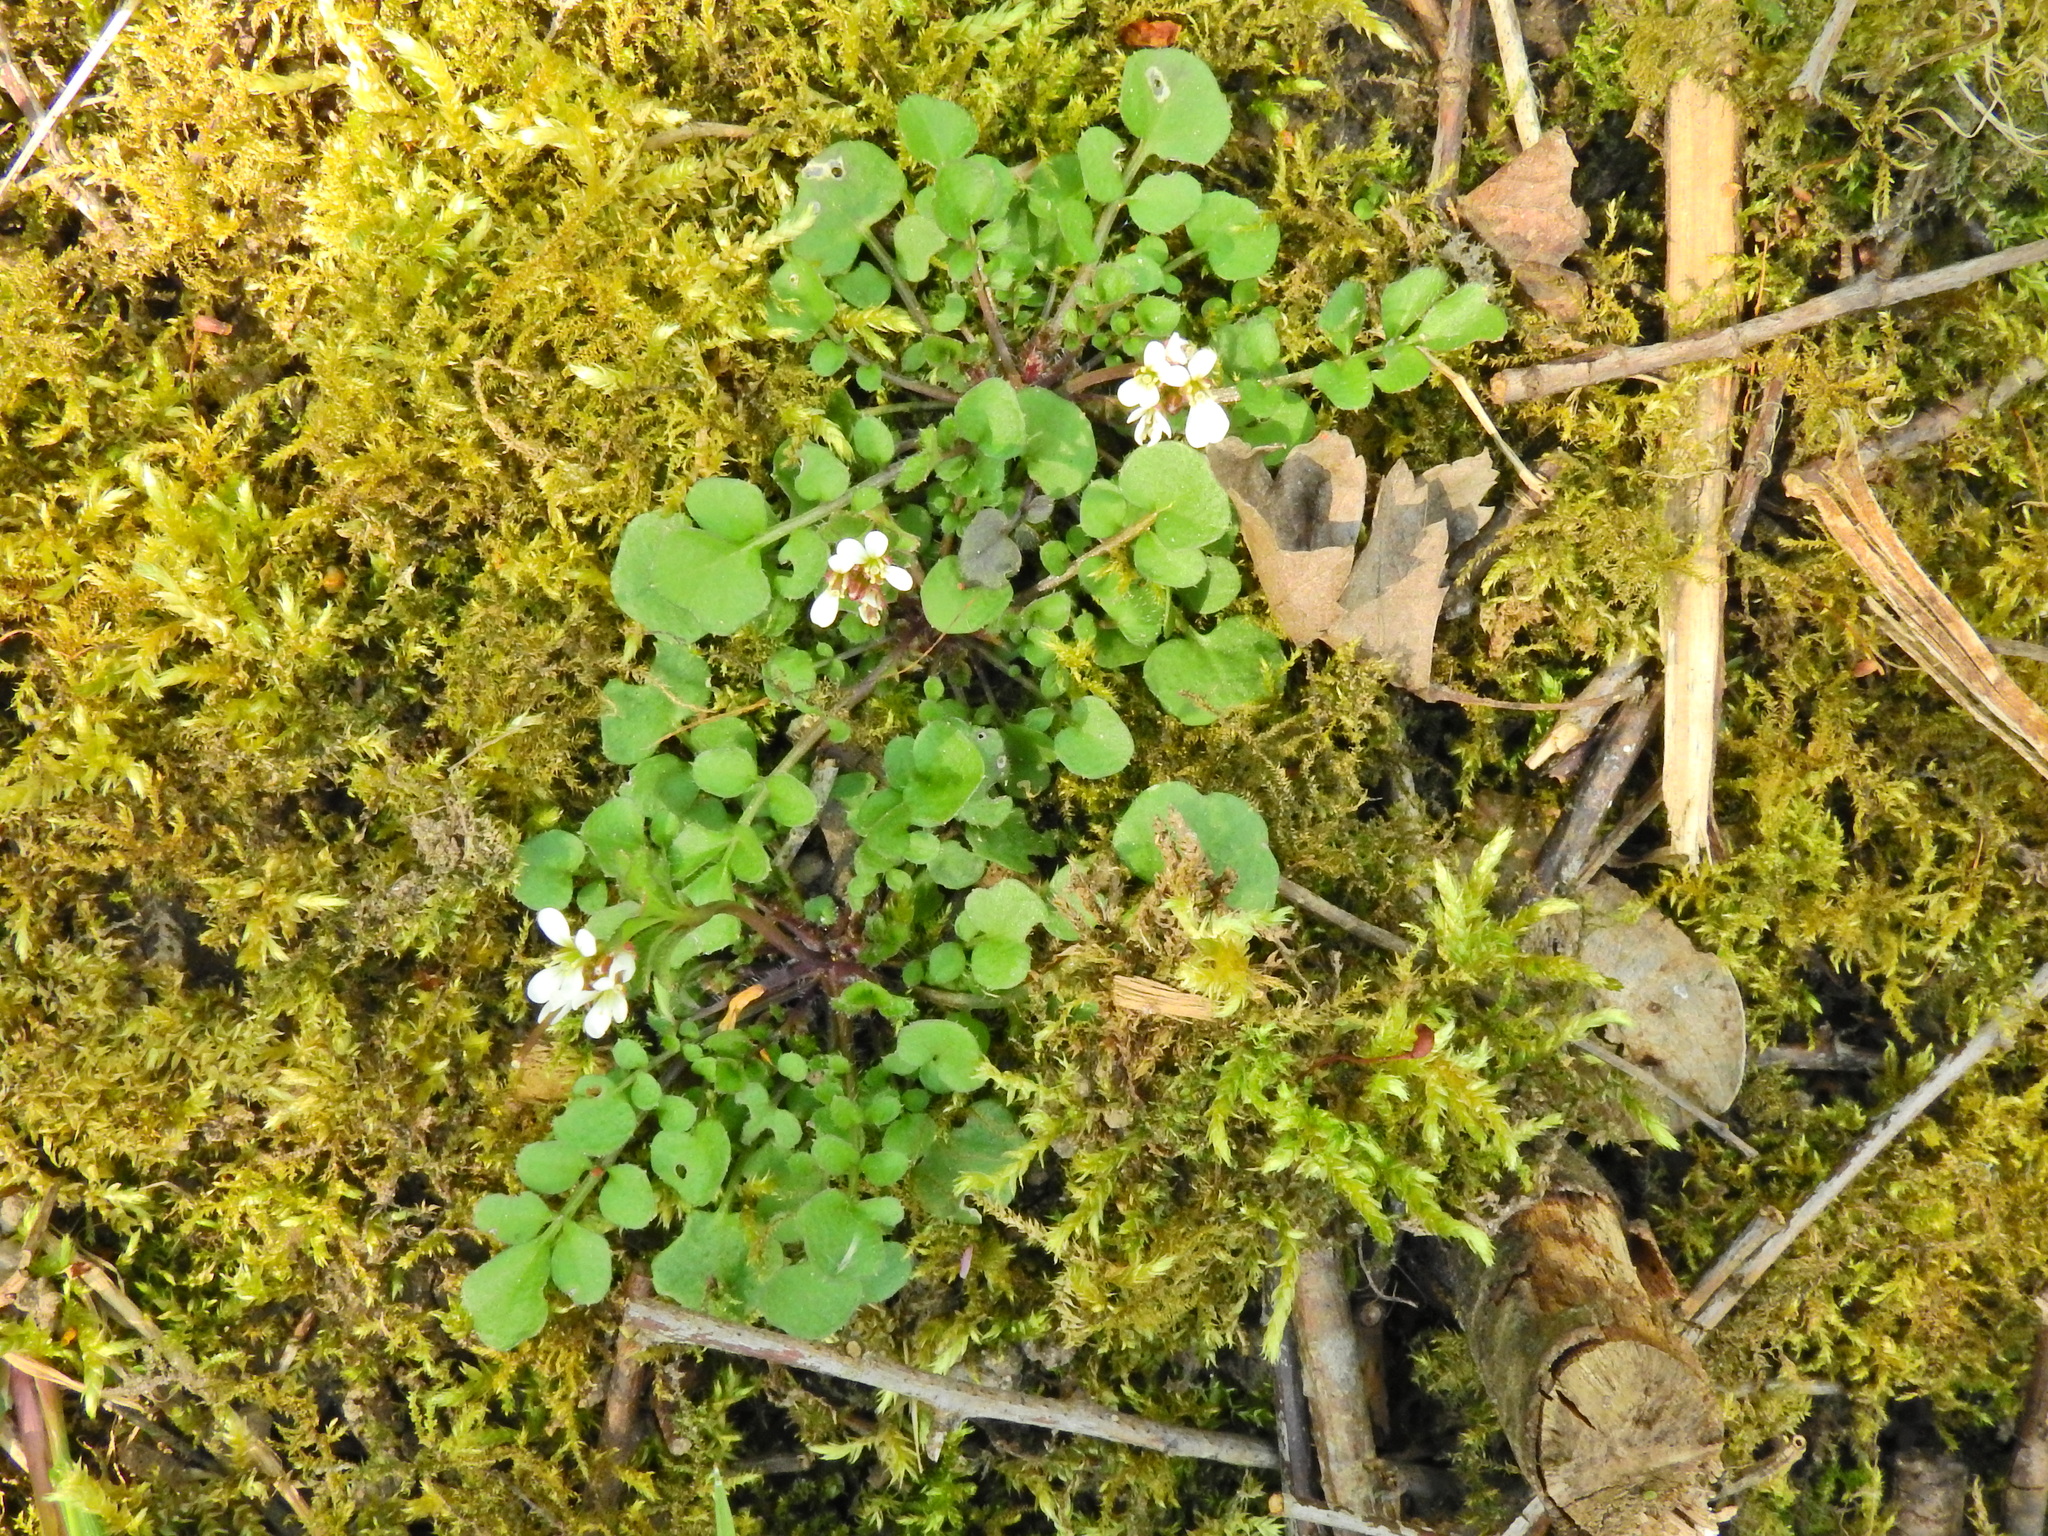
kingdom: Plantae
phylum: Tracheophyta
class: Magnoliopsida
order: Brassicales
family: Brassicaceae
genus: Cardamine
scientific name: Cardamine hirsuta
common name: Hairy bittercress
